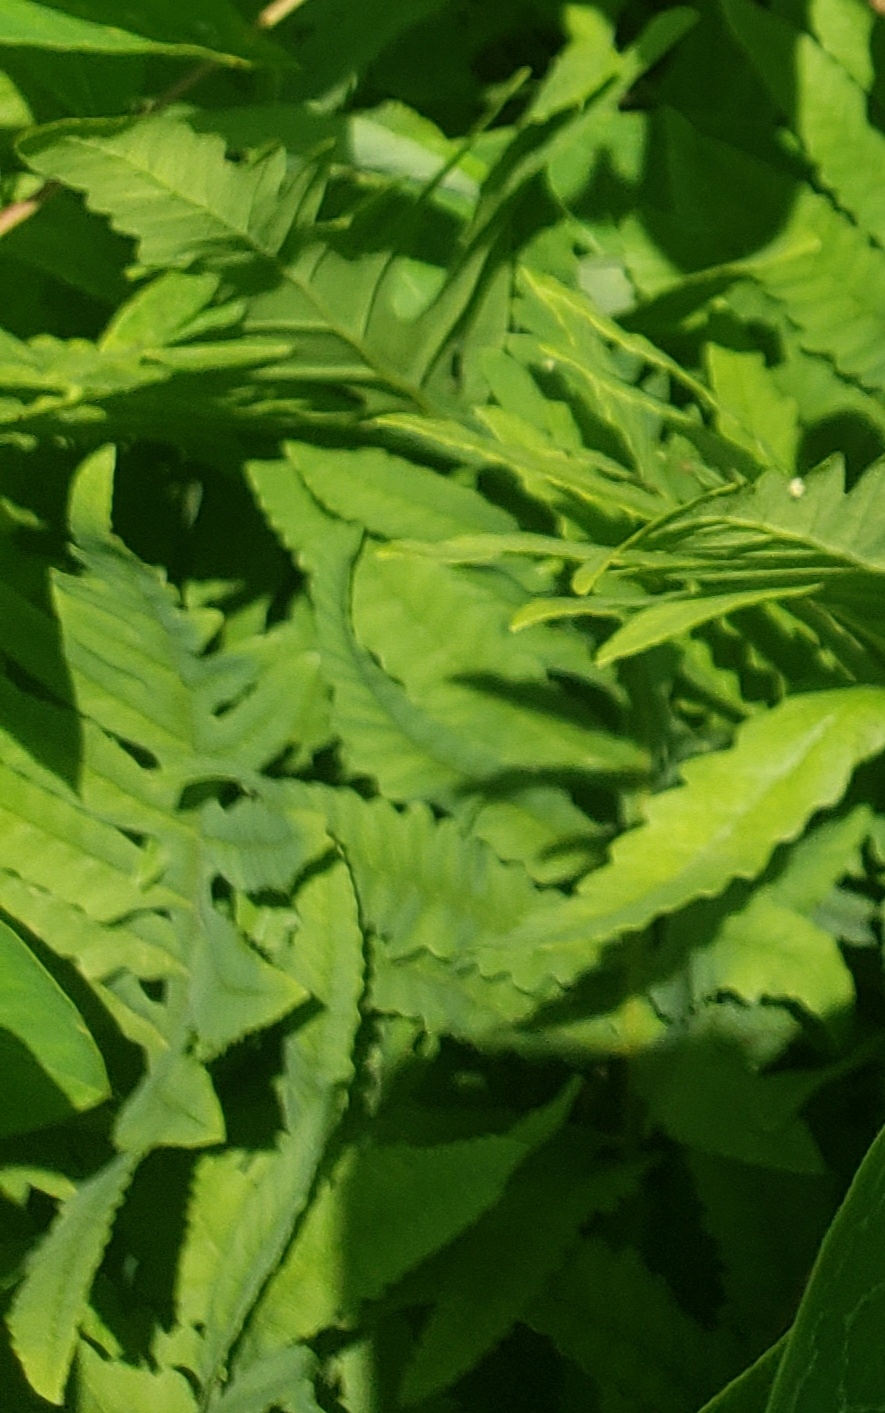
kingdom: Plantae
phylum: Tracheophyta
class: Polypodiopsida
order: Polypodiales
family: Onocleaceae
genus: Onoclea
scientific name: Onoclea sensibilis
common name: Sensitive fern
